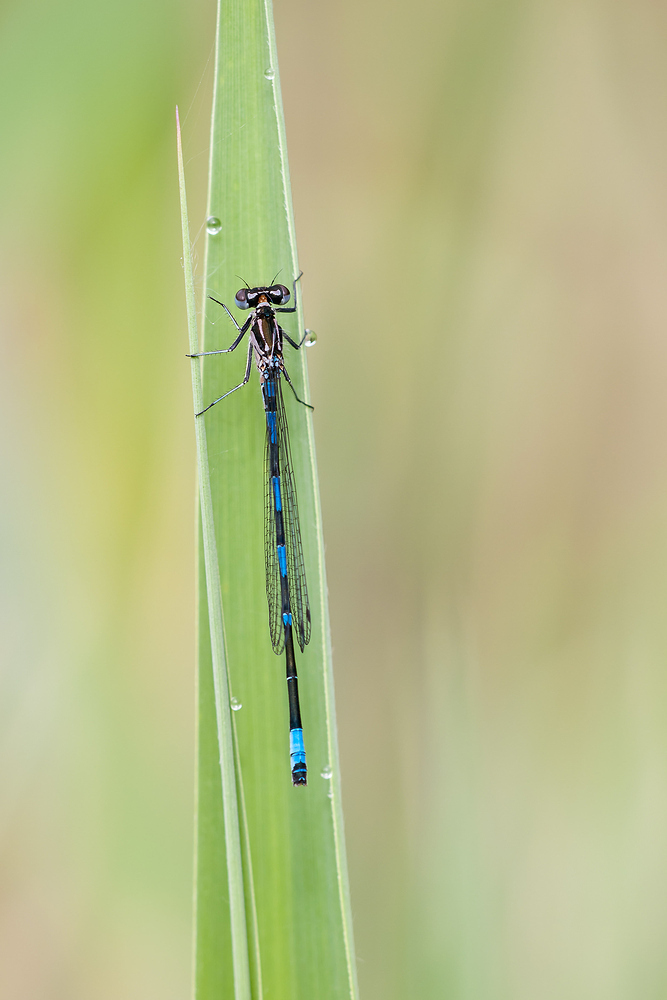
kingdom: Animalia
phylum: Arthropoda
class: Insecta
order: Odonata
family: Coenagrionidae
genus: Coenagrion
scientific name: Coenagrion pulchellum
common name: Variable bluet
